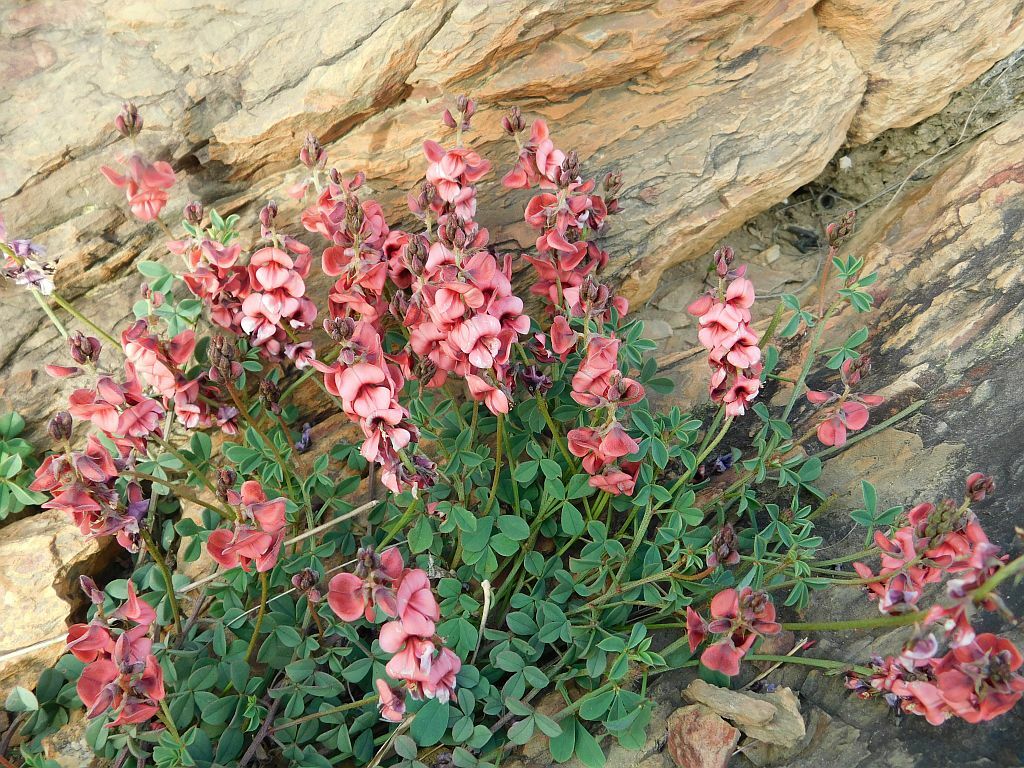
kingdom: Plantae
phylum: Tracheophyta
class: Magnoliopsida
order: Fabales
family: Fabaceae
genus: Indigofera
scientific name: Indigofera heterophylla
